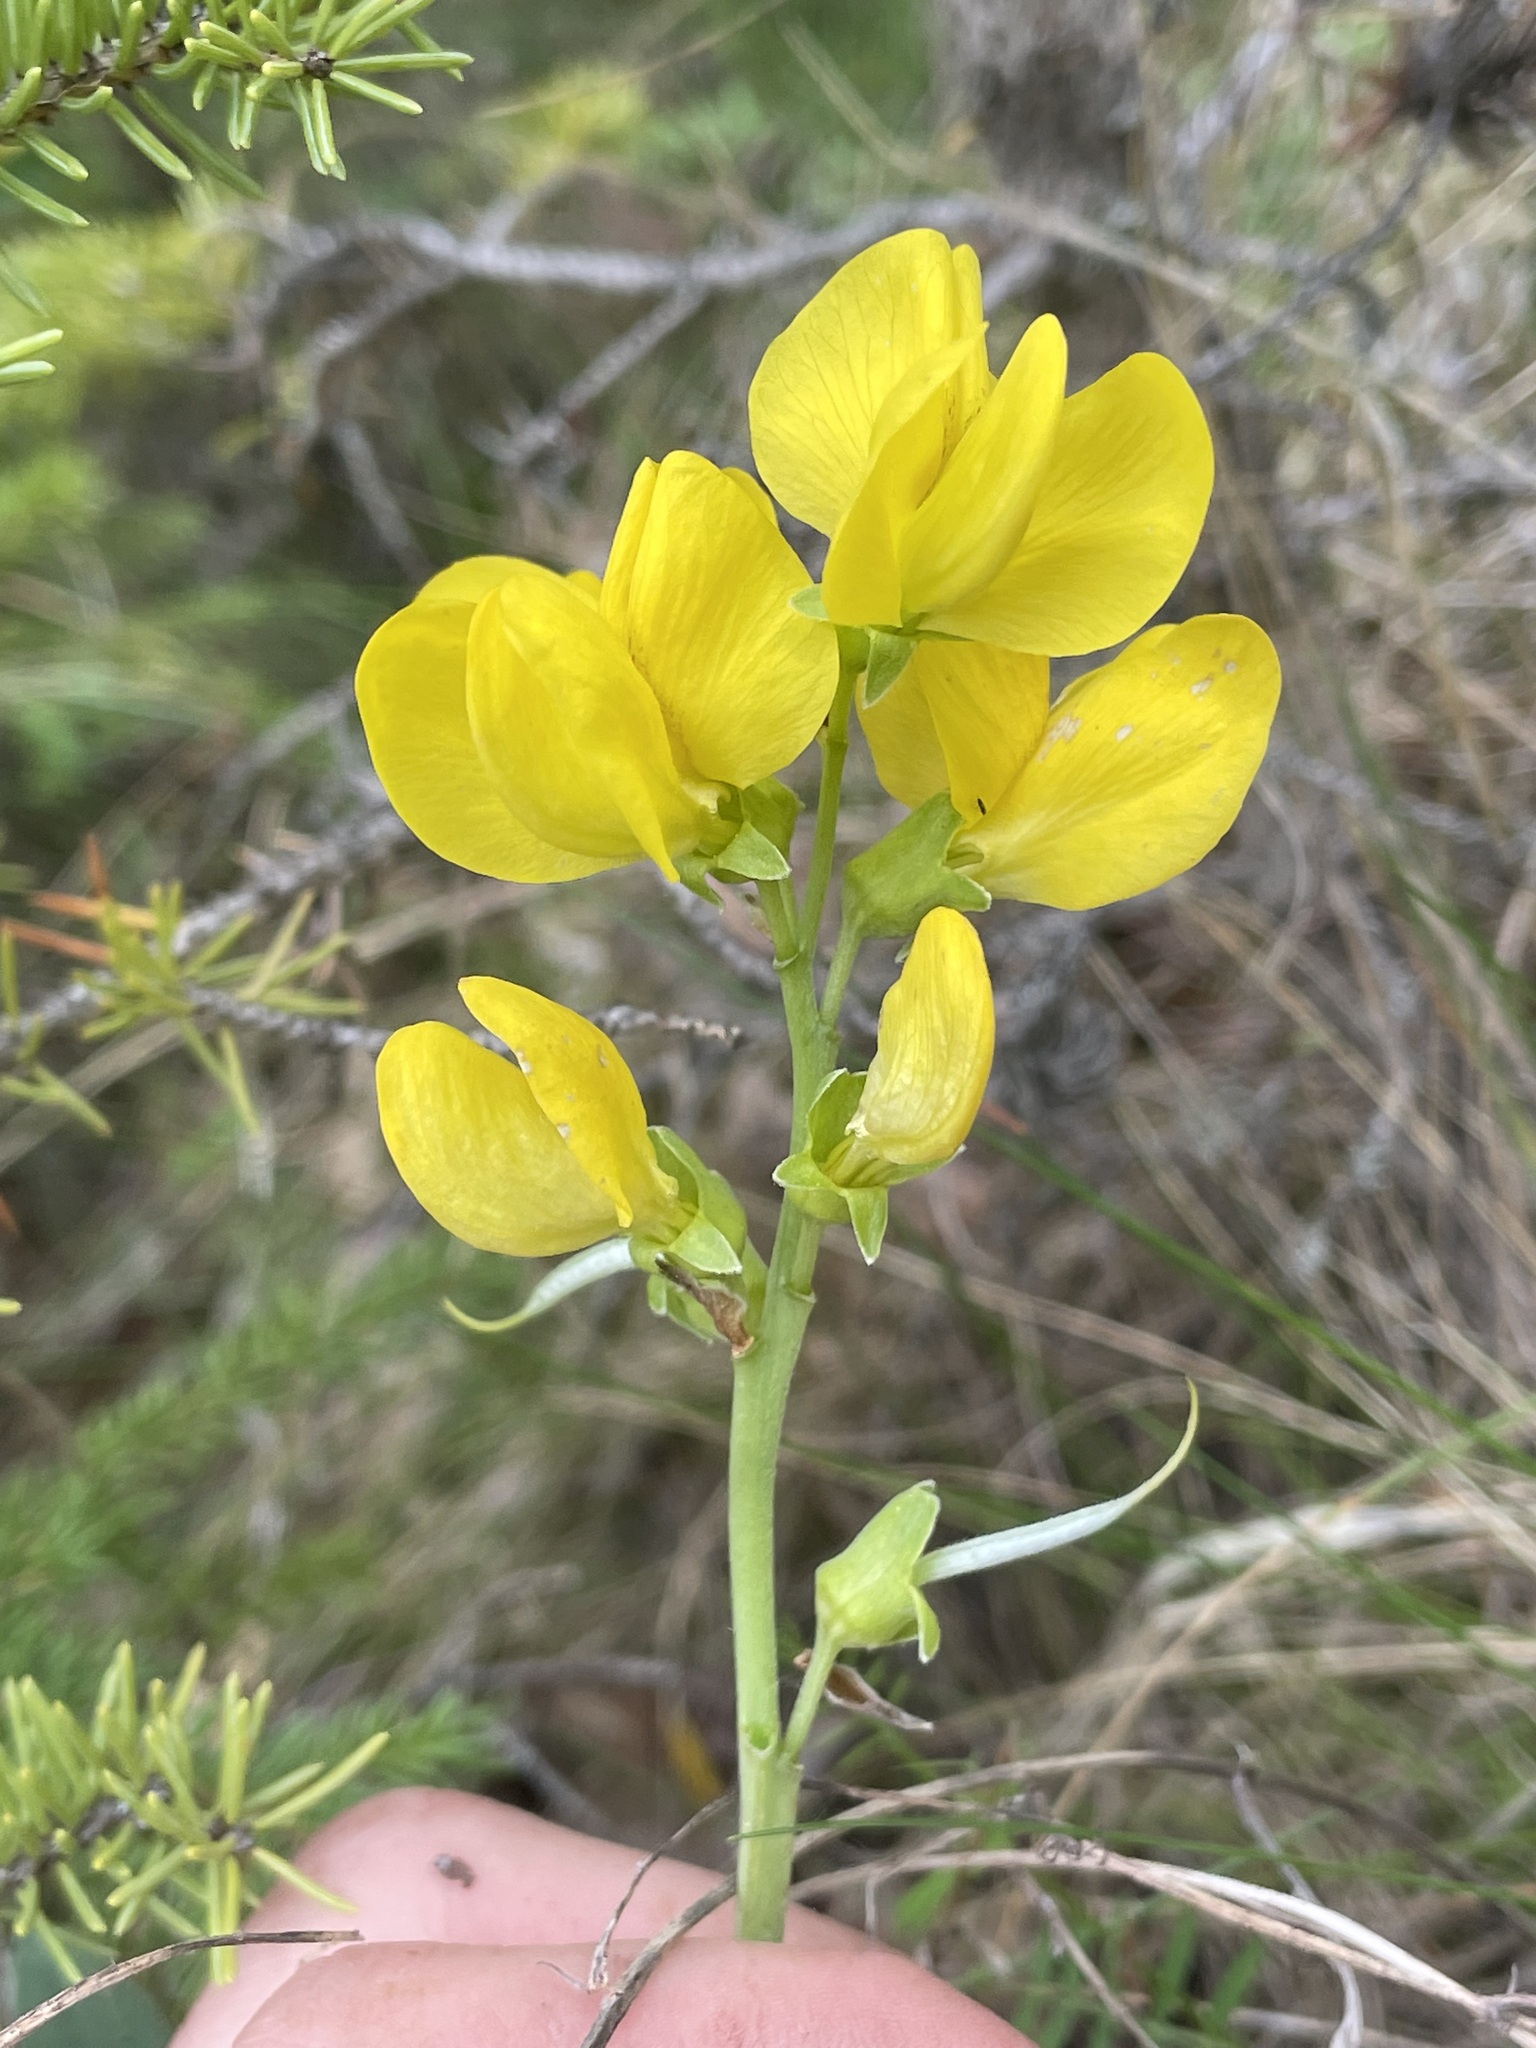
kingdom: Plantae
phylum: Tracheophyta
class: Magnoliopsida
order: Fabales
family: Fabaceae
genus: Thermopsis
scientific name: Thermopsis rhombifolia
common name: Circle-pod-pea
